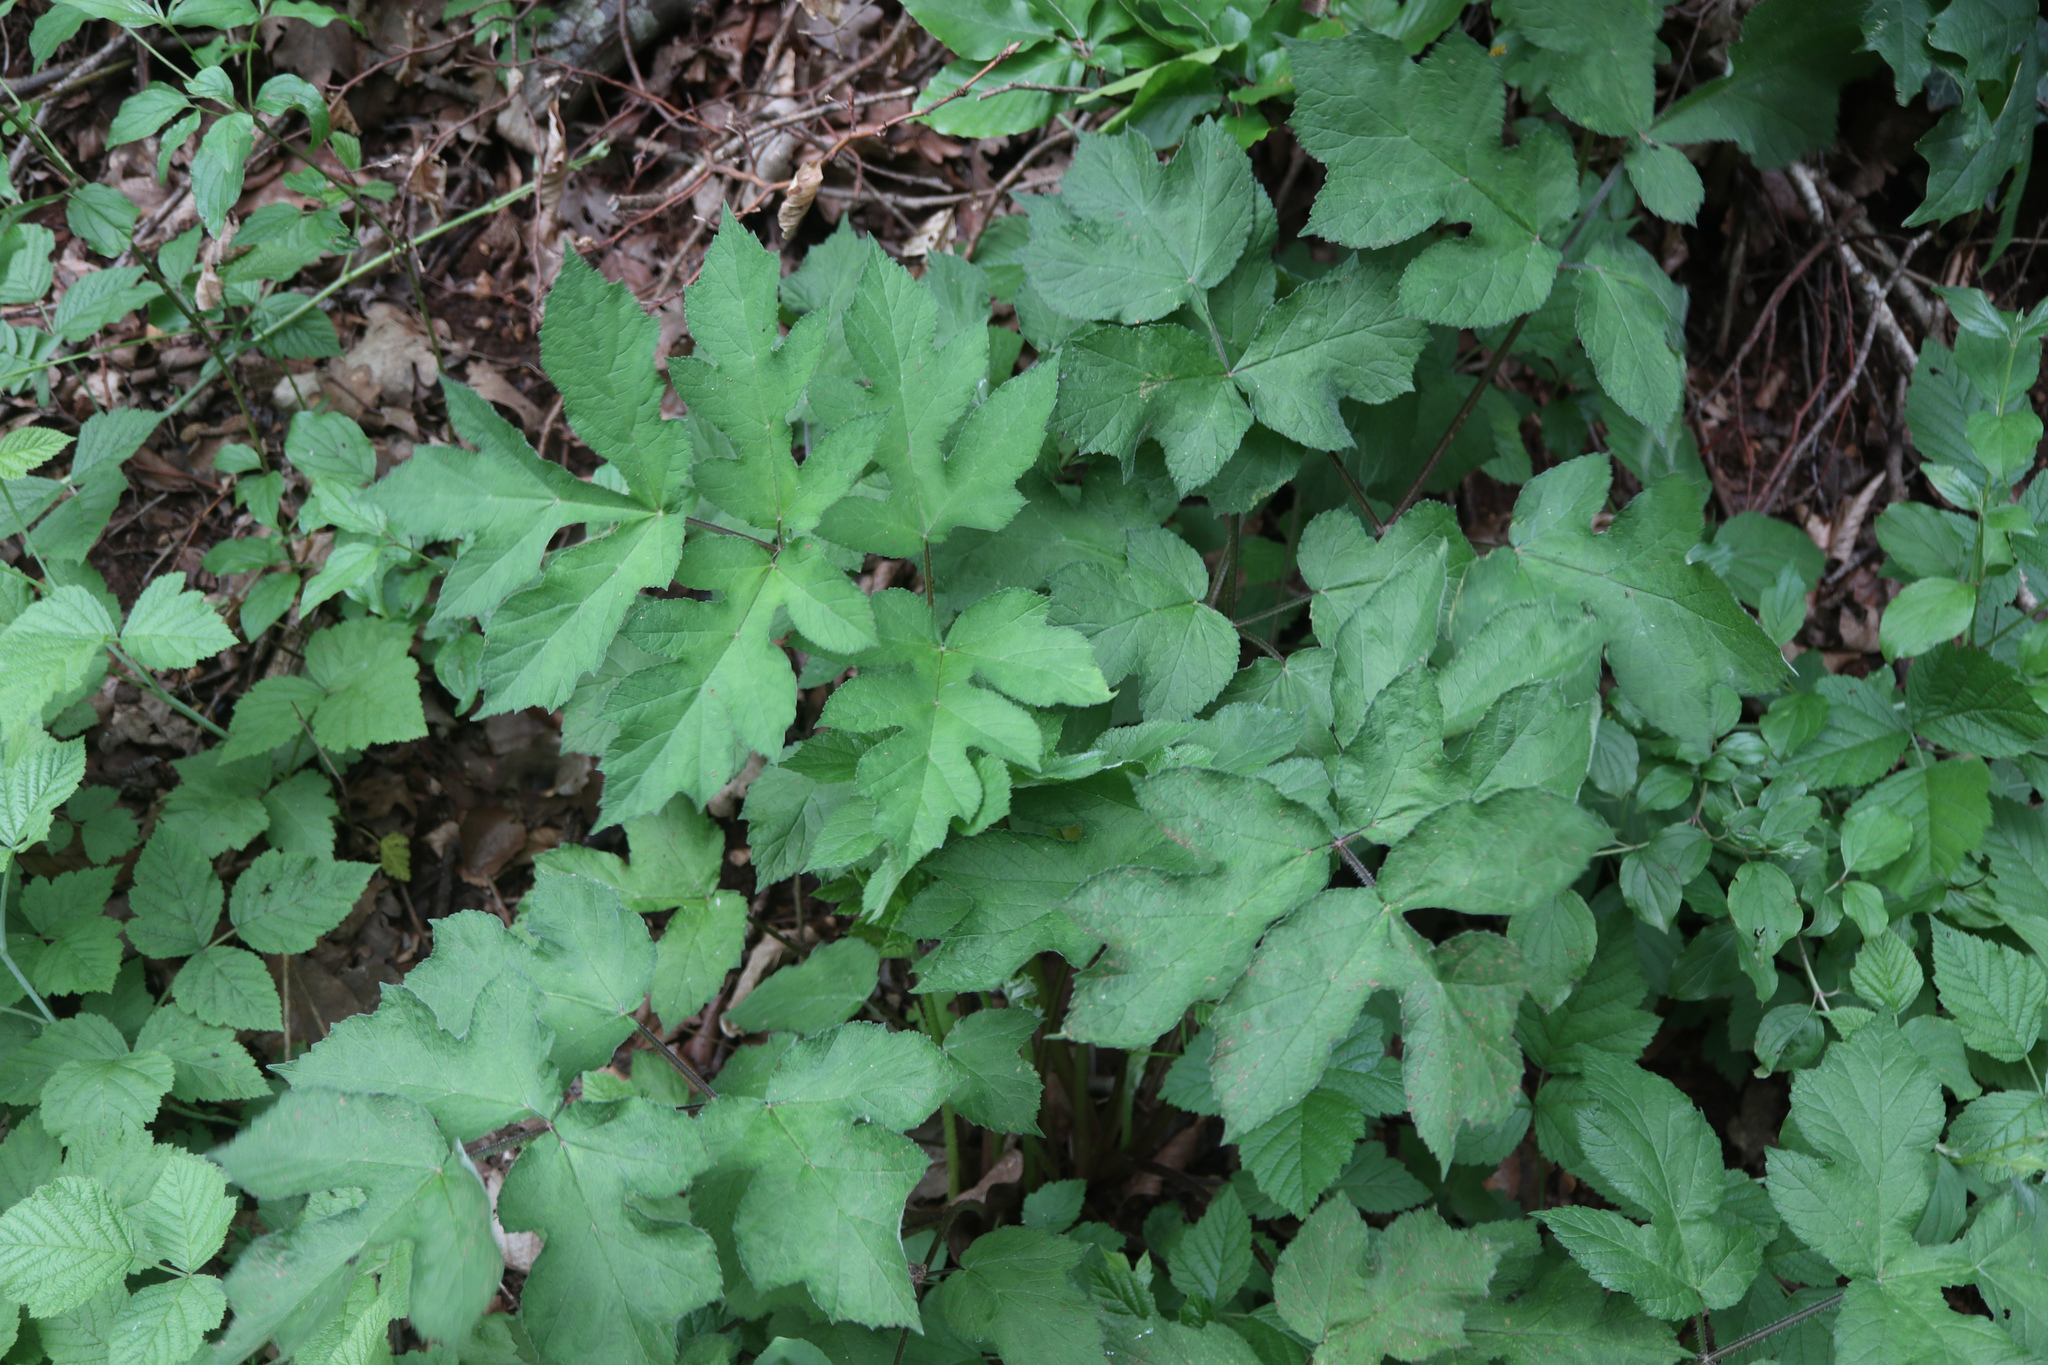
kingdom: Plantae
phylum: Tracheophyta
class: Magnoliopsida
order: Apiales
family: Apiaceae
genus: Heracleum
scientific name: Heracleum sphondylium
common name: Hogweed
